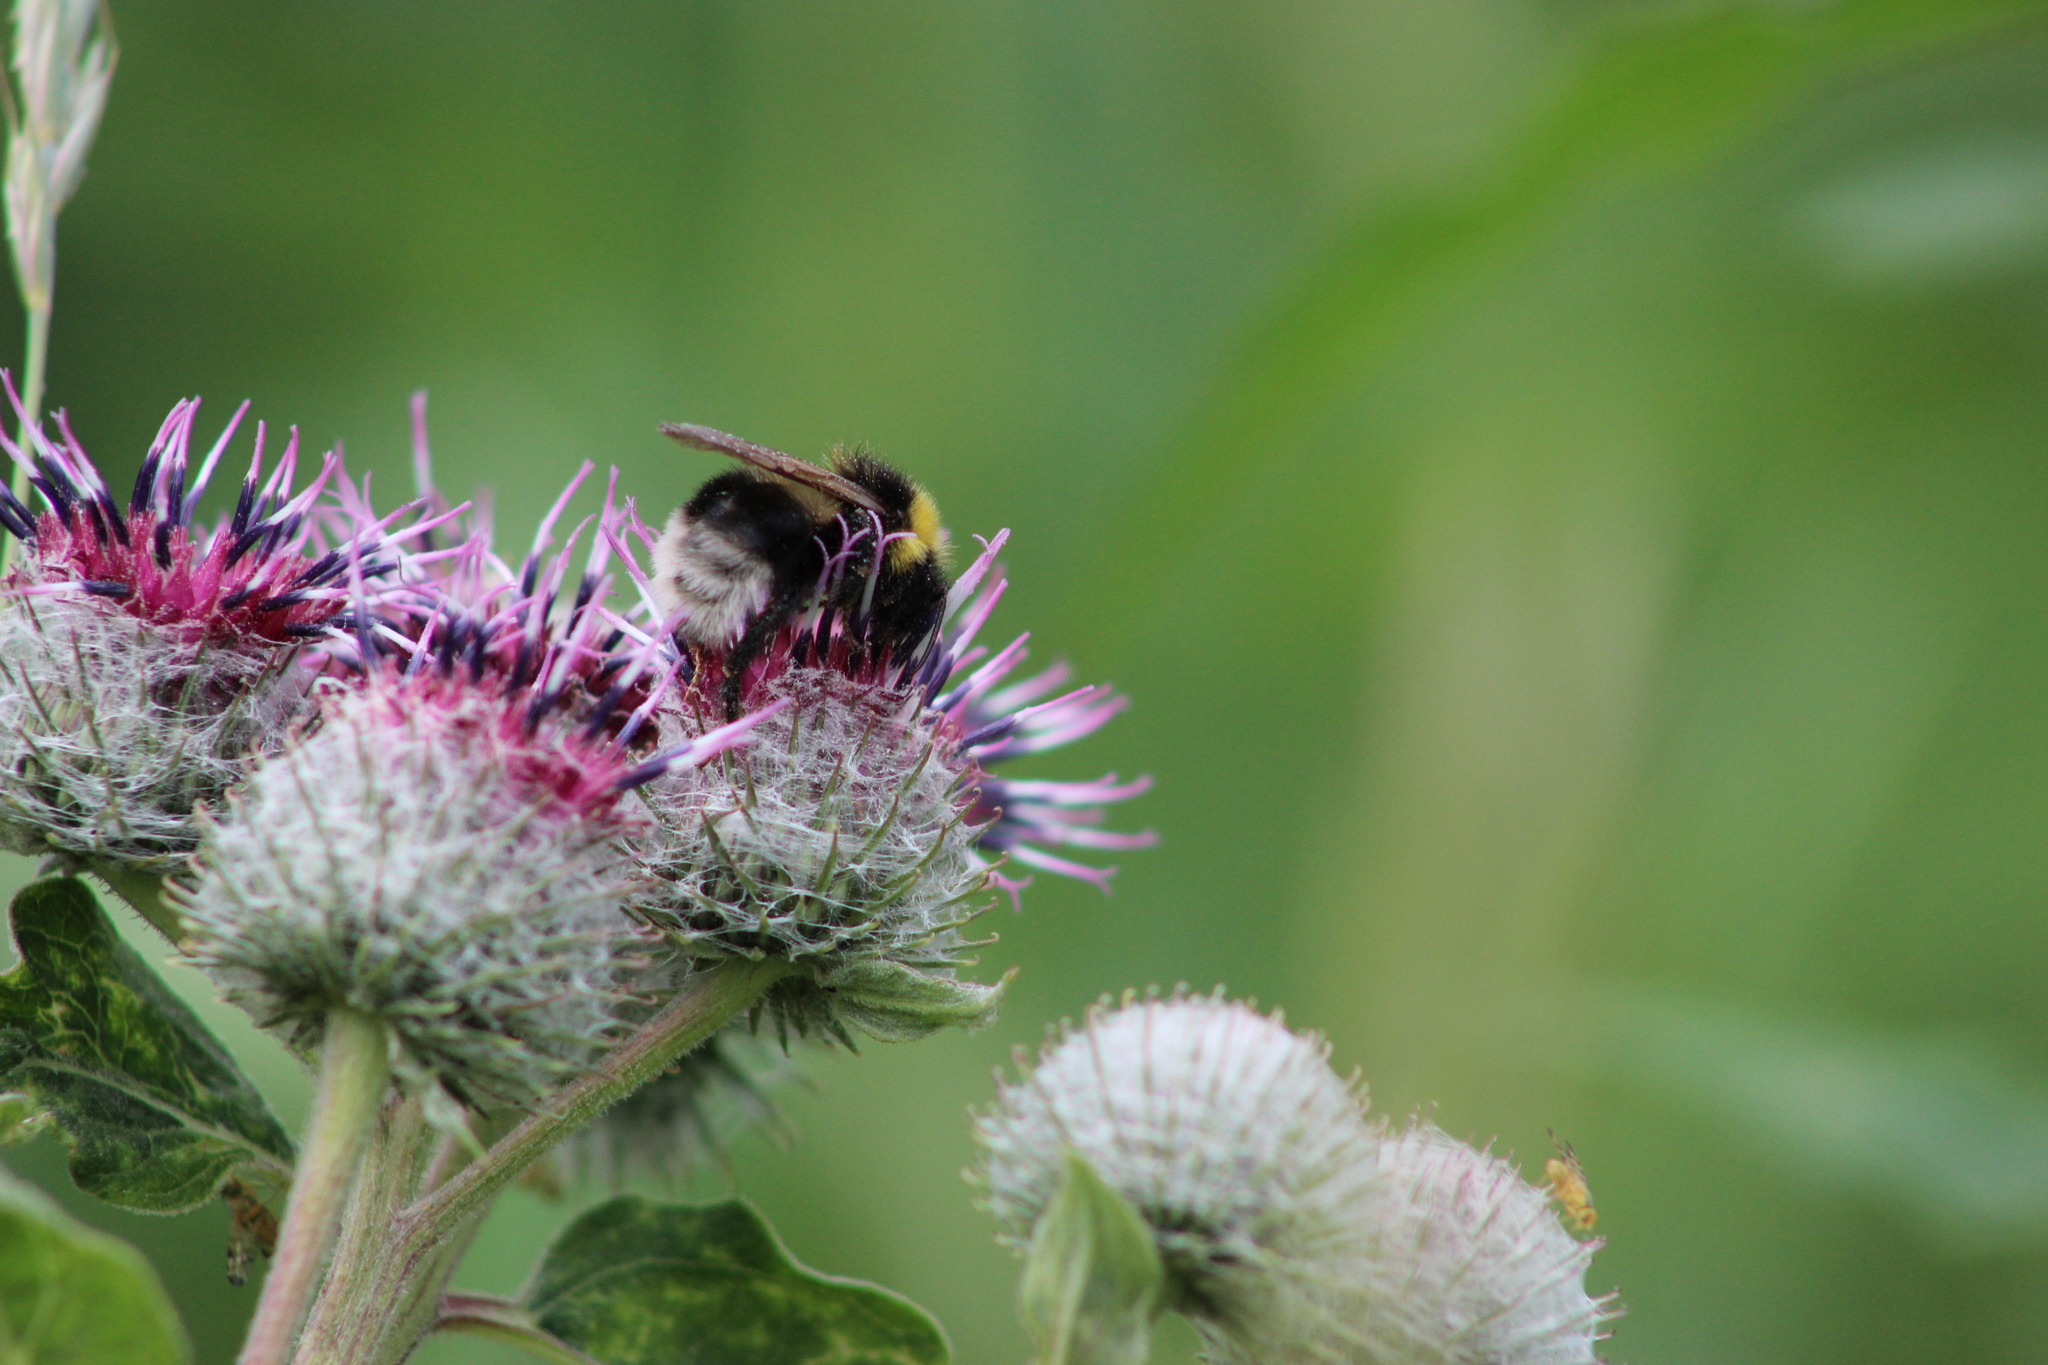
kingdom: Animalia
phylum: Arthropoda
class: Insecta
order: Hymenoptera
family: Apidae
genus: Bombus
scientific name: Bombus bohemicus
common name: Gypsy cuckoo bee
